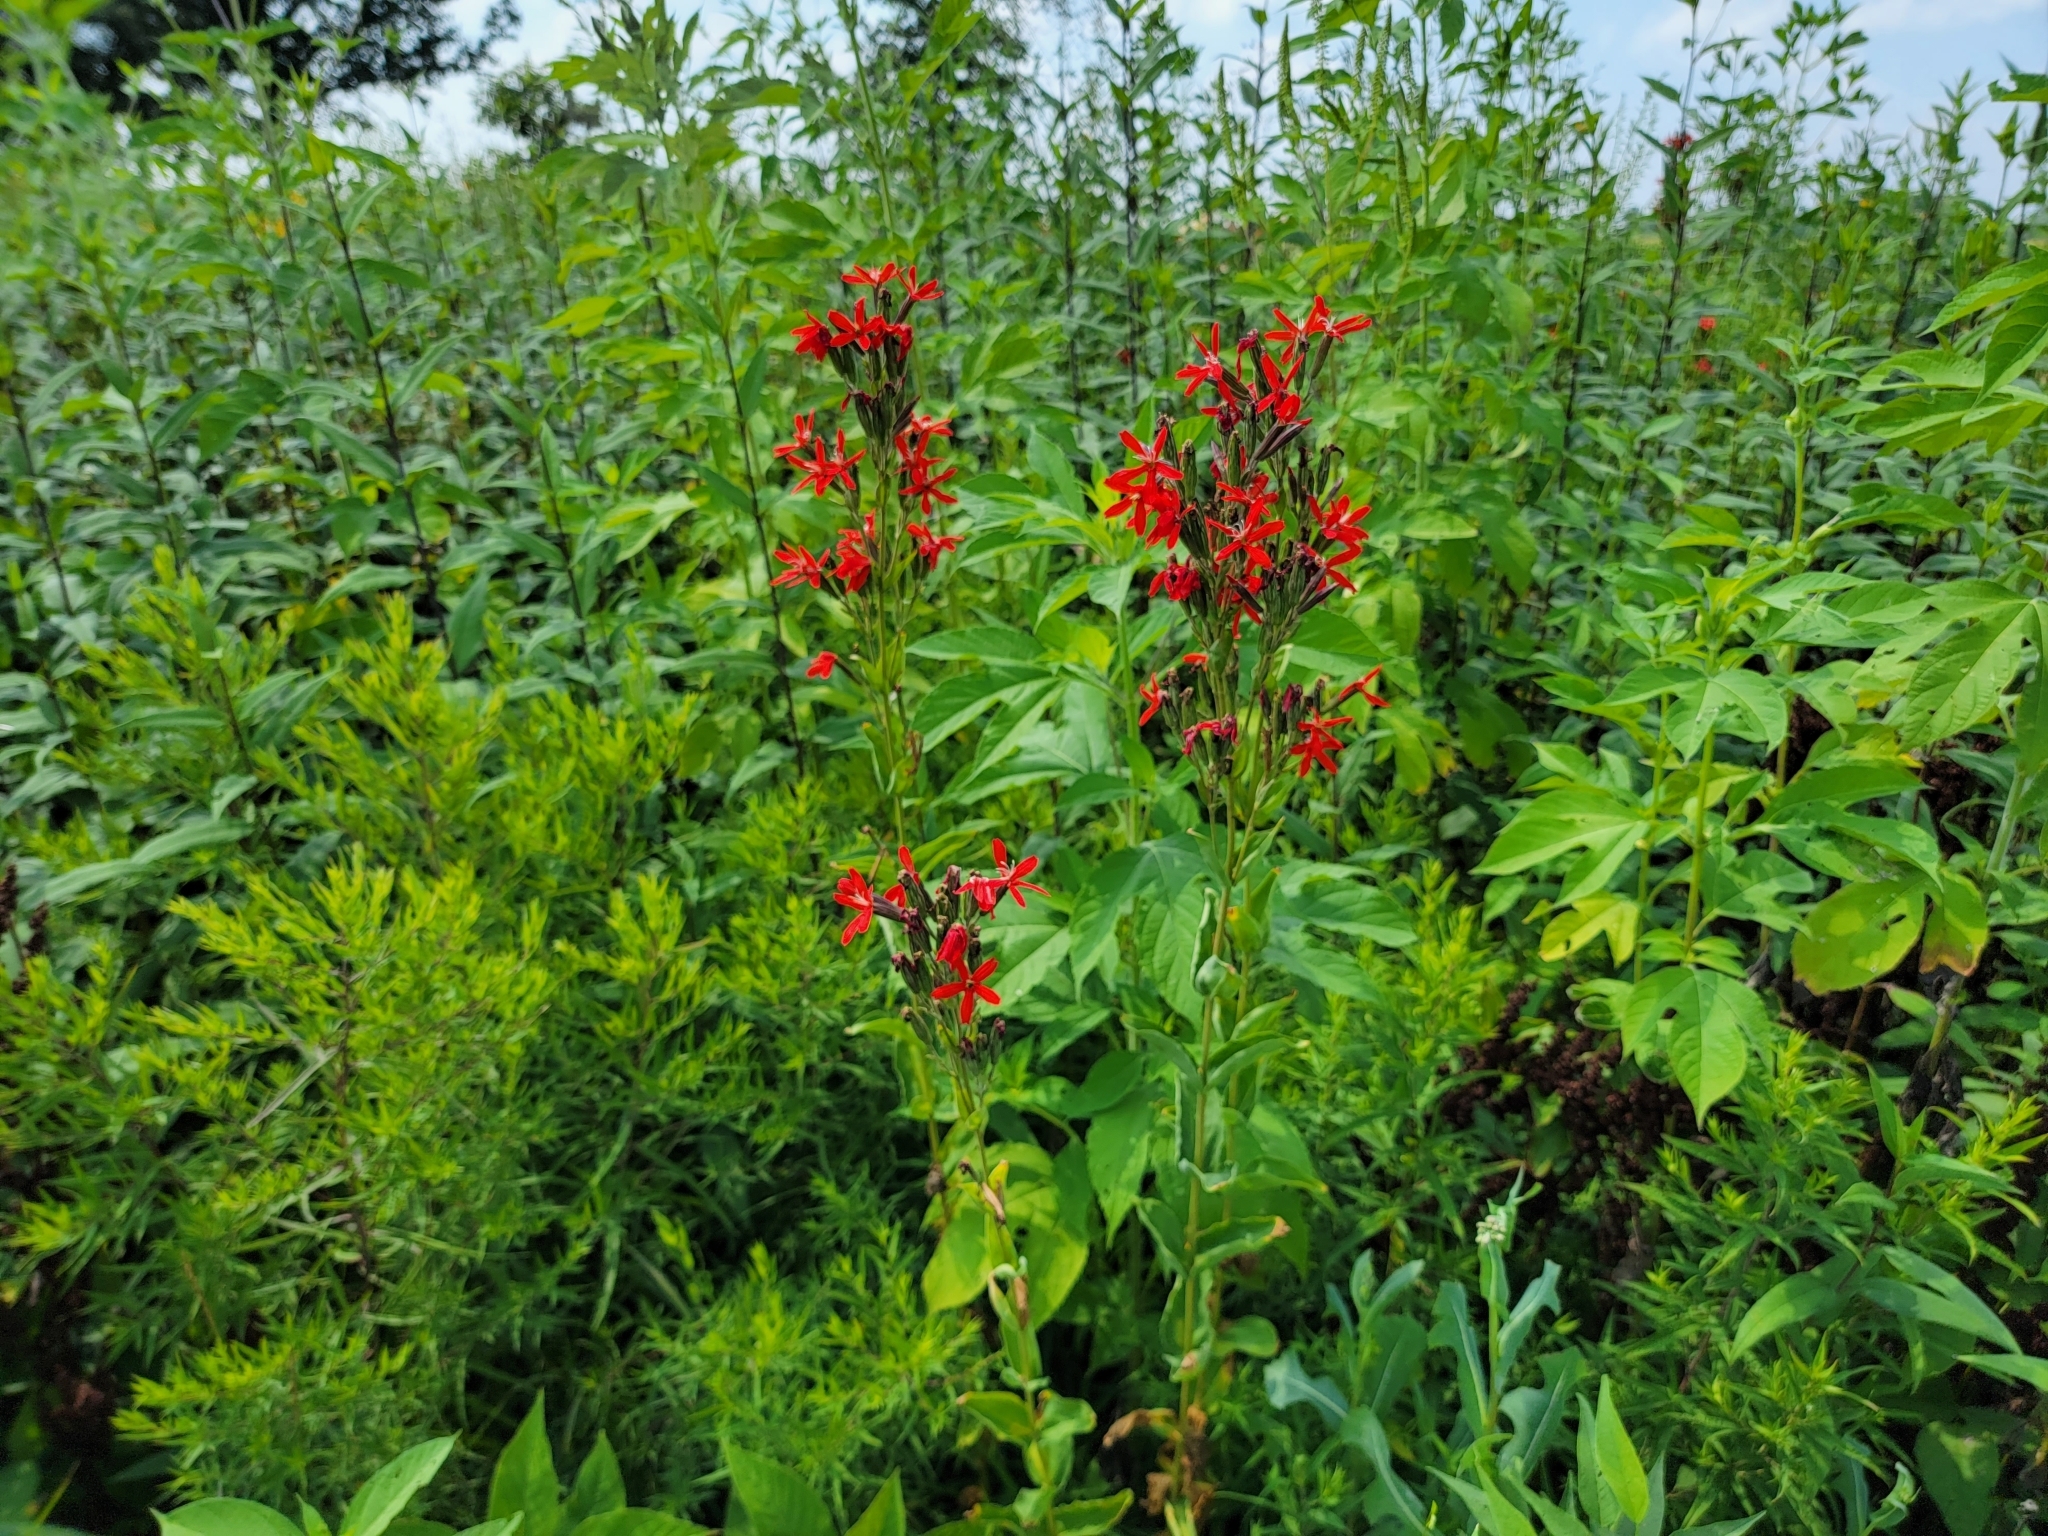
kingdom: Plantae
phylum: Tracheophyta
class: Magnoliopsida
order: Caryophyllales
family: Caryophyllaceae
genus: Silene
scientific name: Silene regia
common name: Royal catchfly
